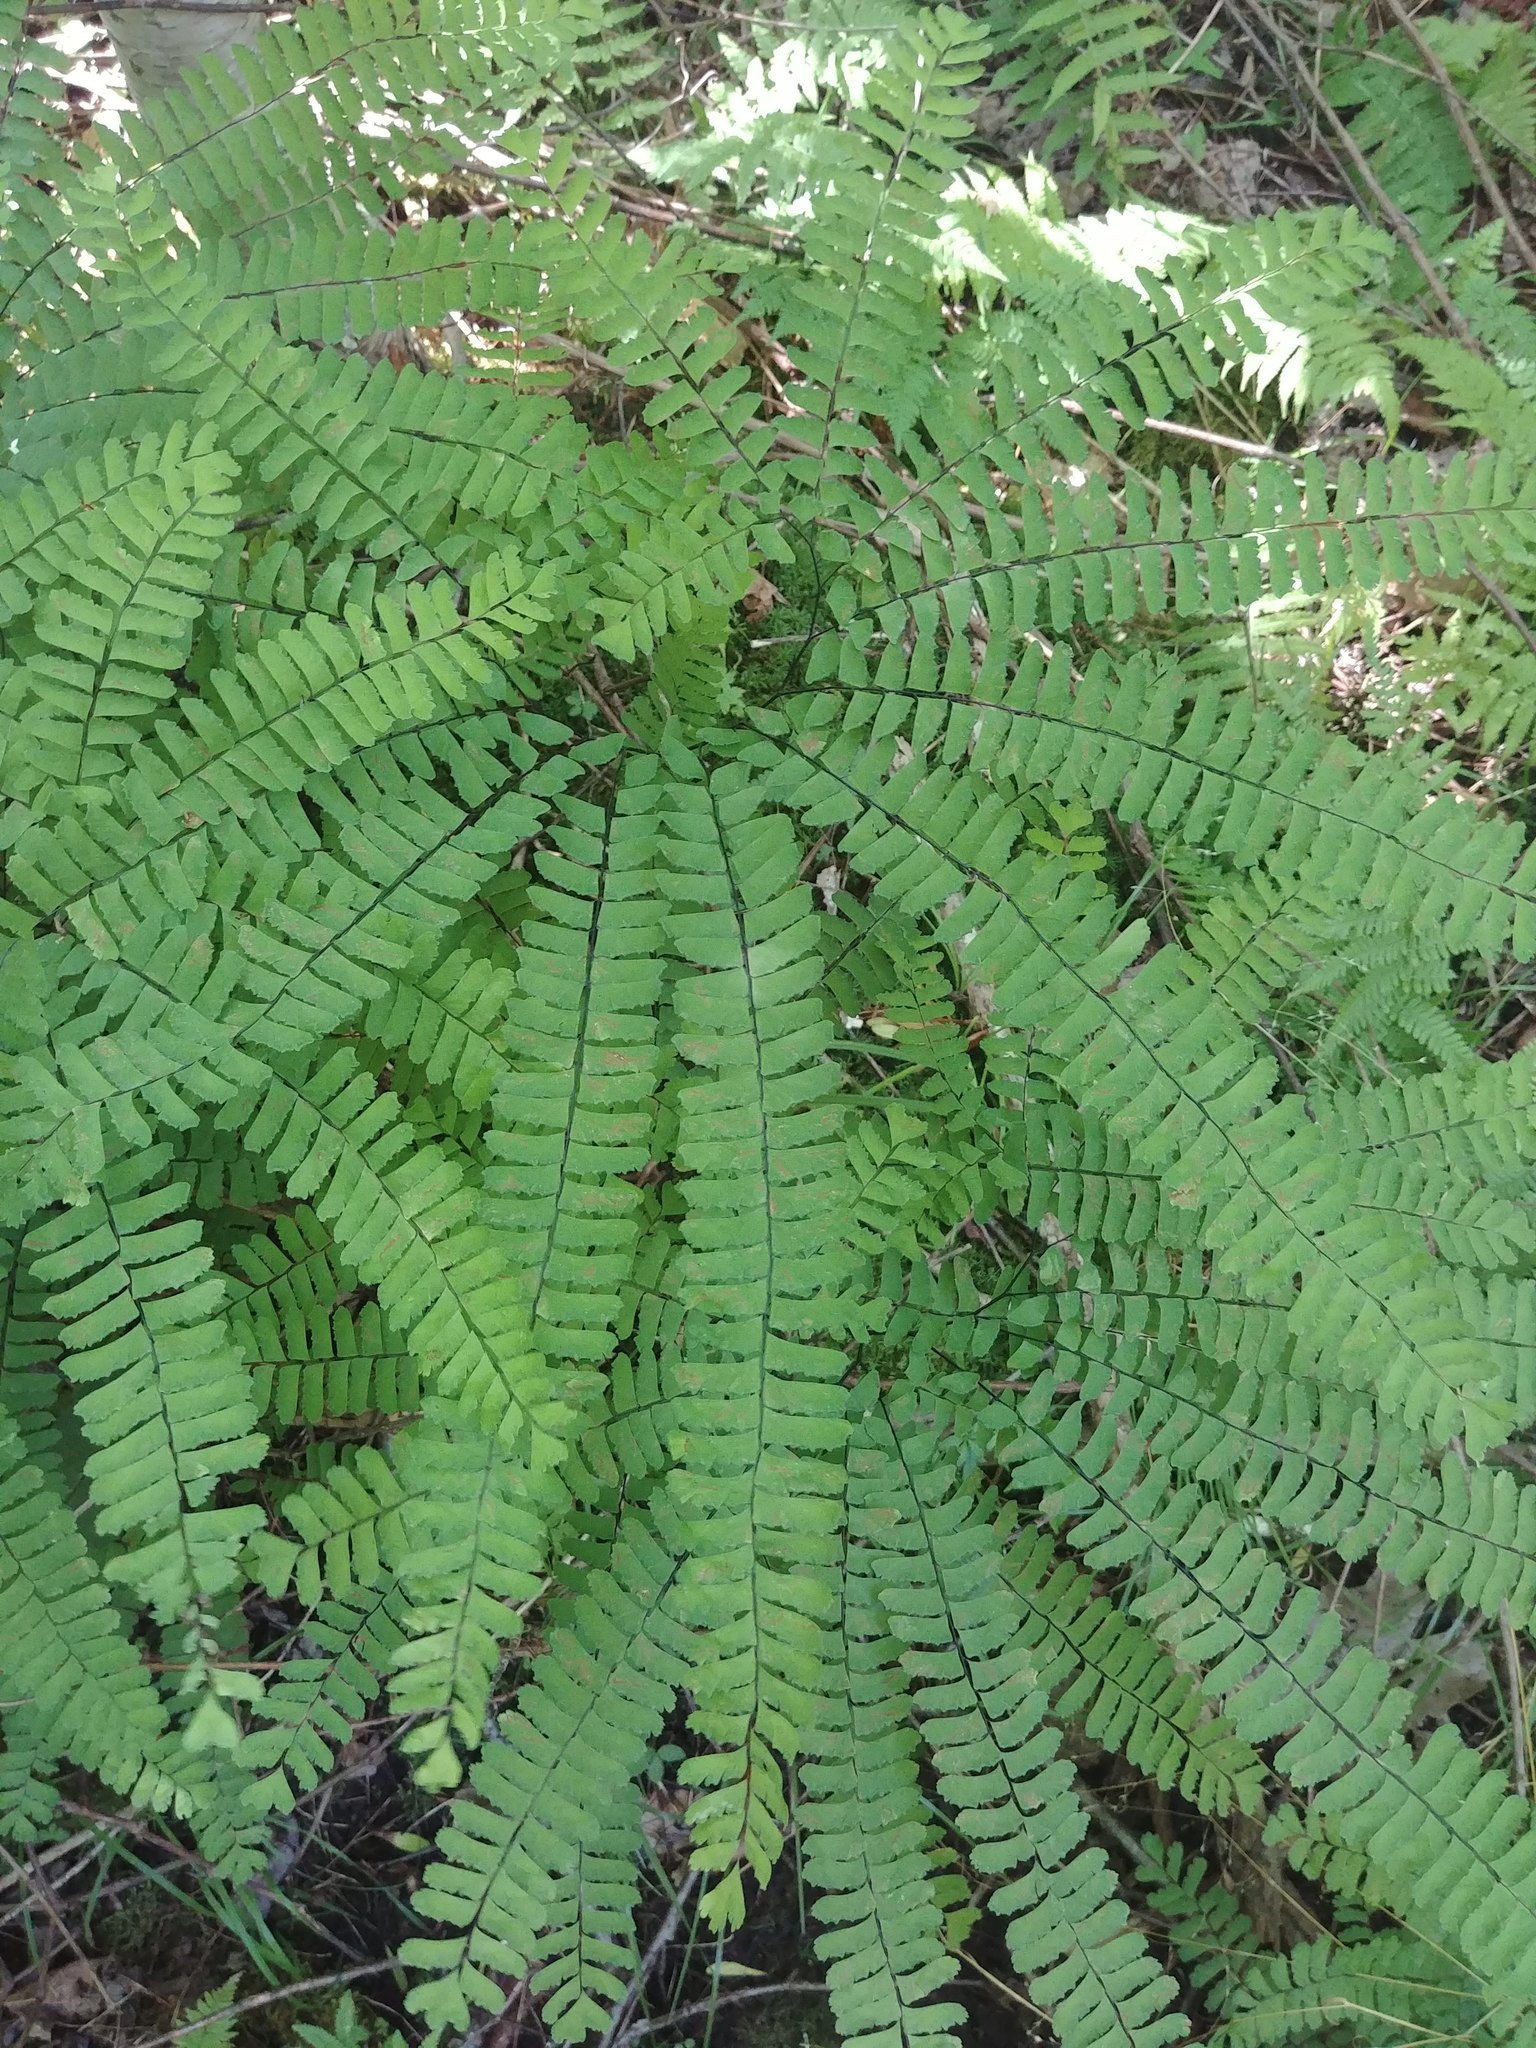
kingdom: Plantae
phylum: Tracheophyta
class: Polypodiopsida
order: Polypodiales
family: Pteridaceae
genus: Adiantum
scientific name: Adiantum pedatum
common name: Five-finger fern
